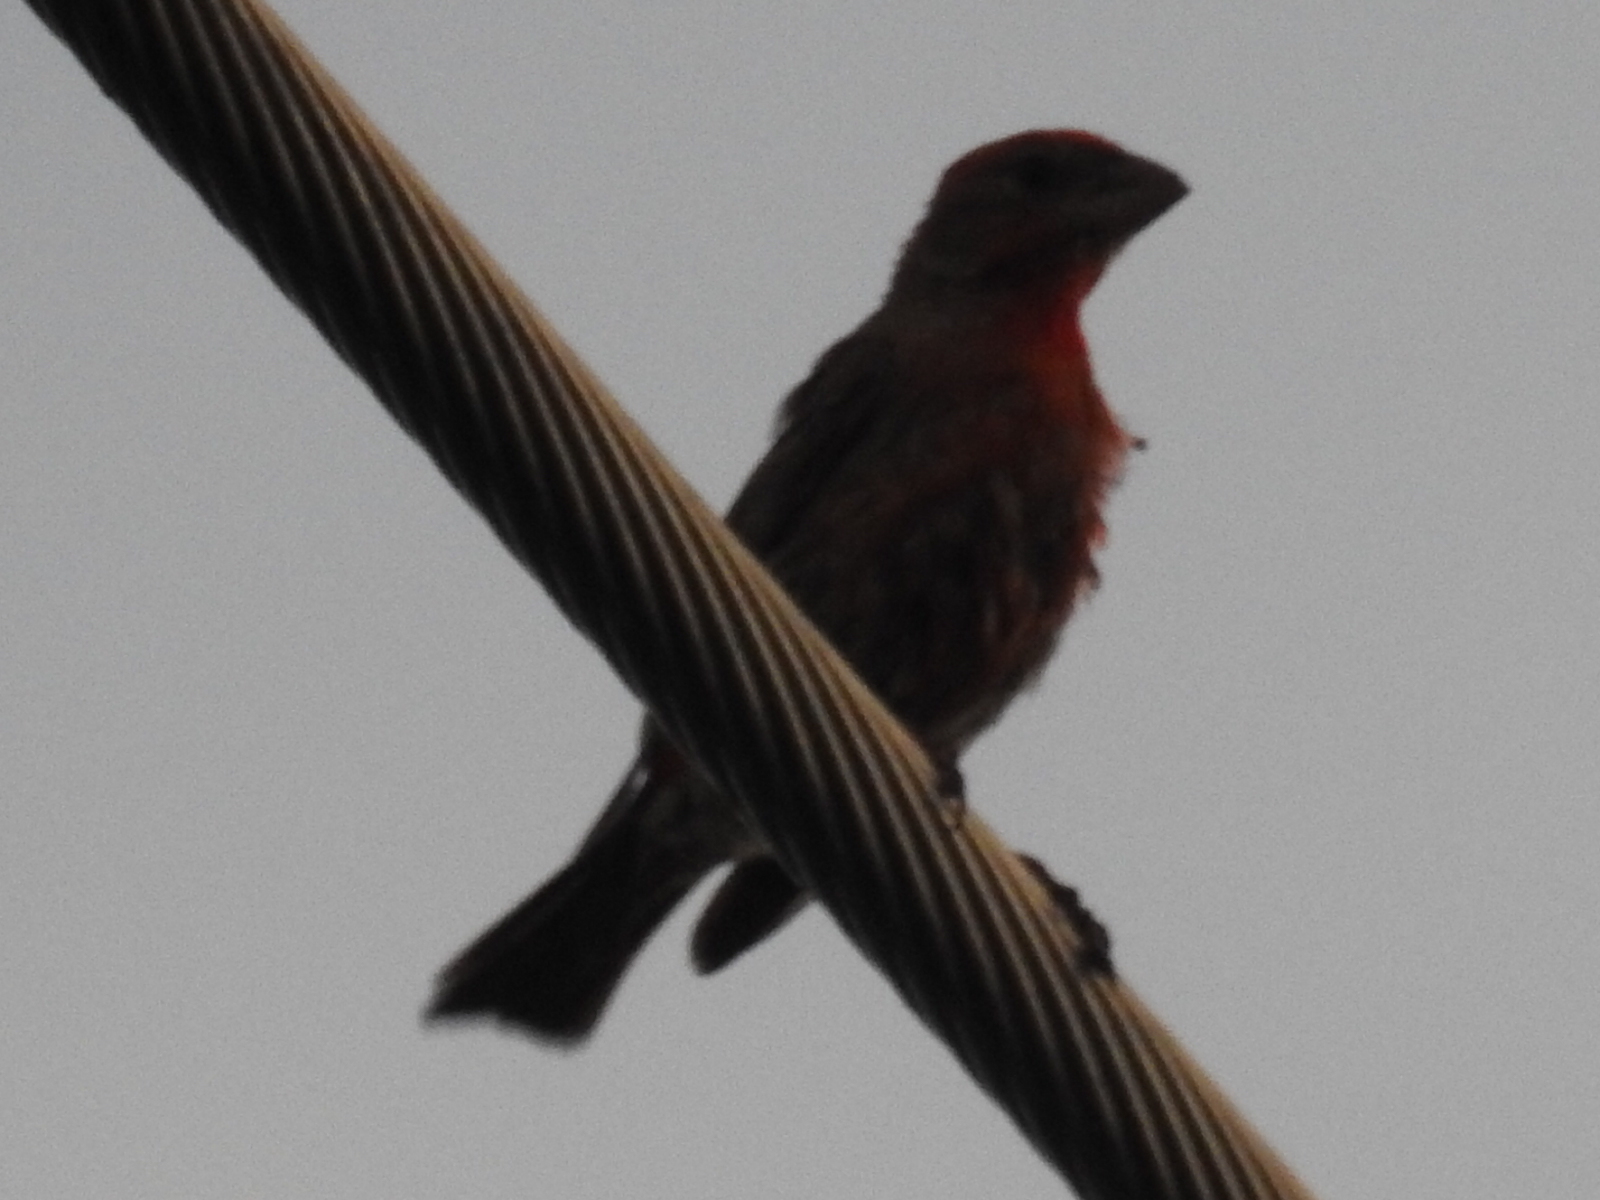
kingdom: Animalia
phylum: Chordata
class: Aves
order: Passeriformes
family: Fringillidae
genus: Haemorhous
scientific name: Haemorhous mexicanus
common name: House finch
